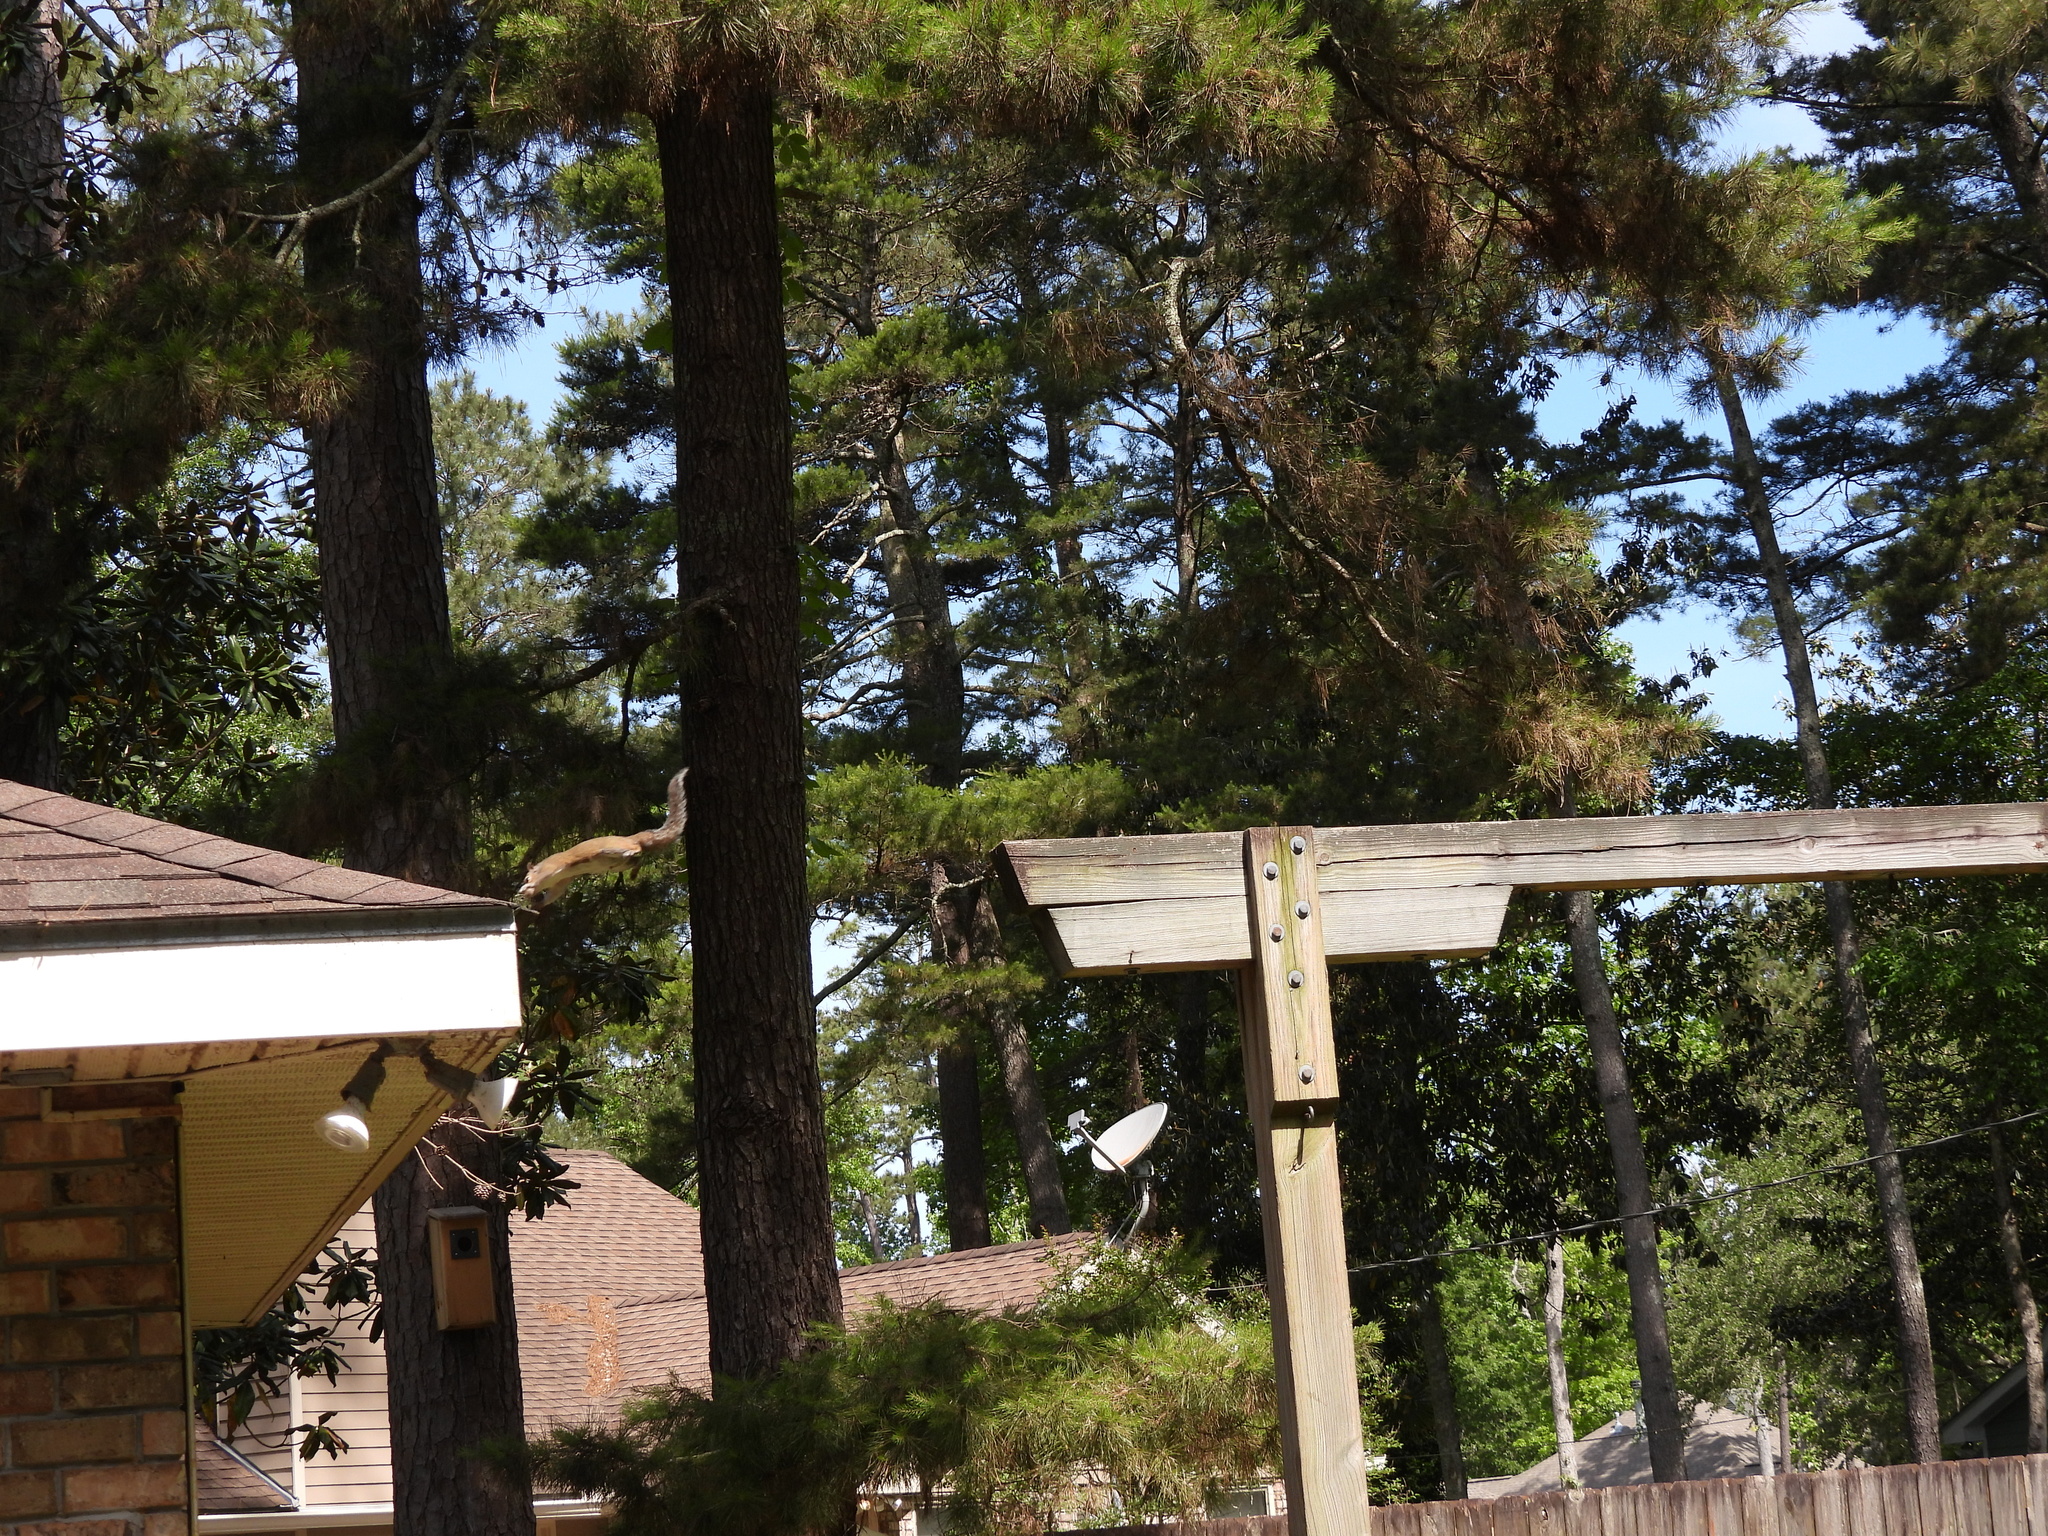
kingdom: Animalia
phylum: Chordata
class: Mammalia
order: Rodentia
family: Sciuridae
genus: Sciurus
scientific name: Sciurus carolinensis
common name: Eastern gray squirrel
